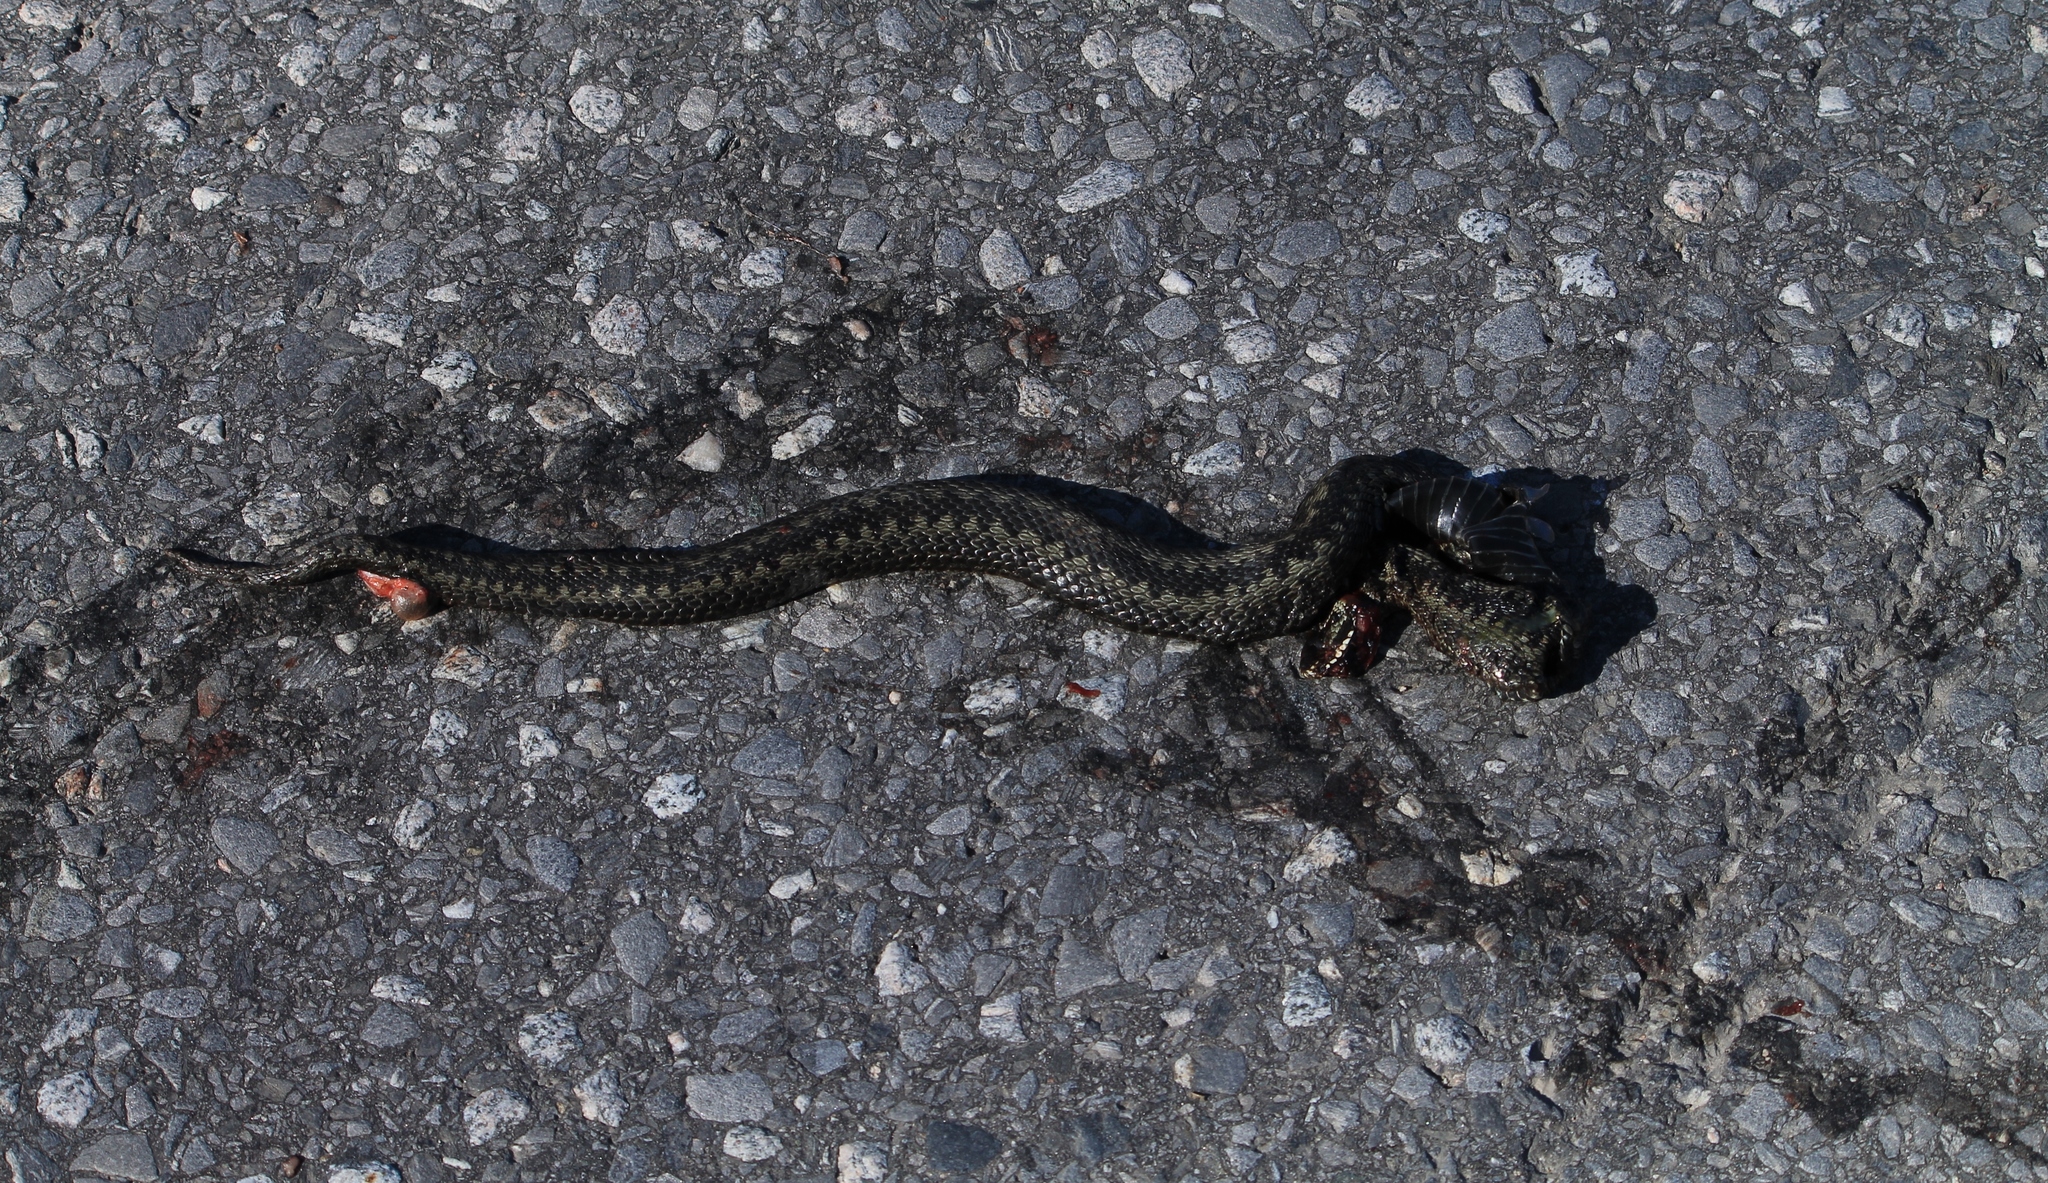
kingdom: Animalia
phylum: Chordata
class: Squamata
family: Viperidae
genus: Vipera
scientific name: Vipera berus
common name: Adder
